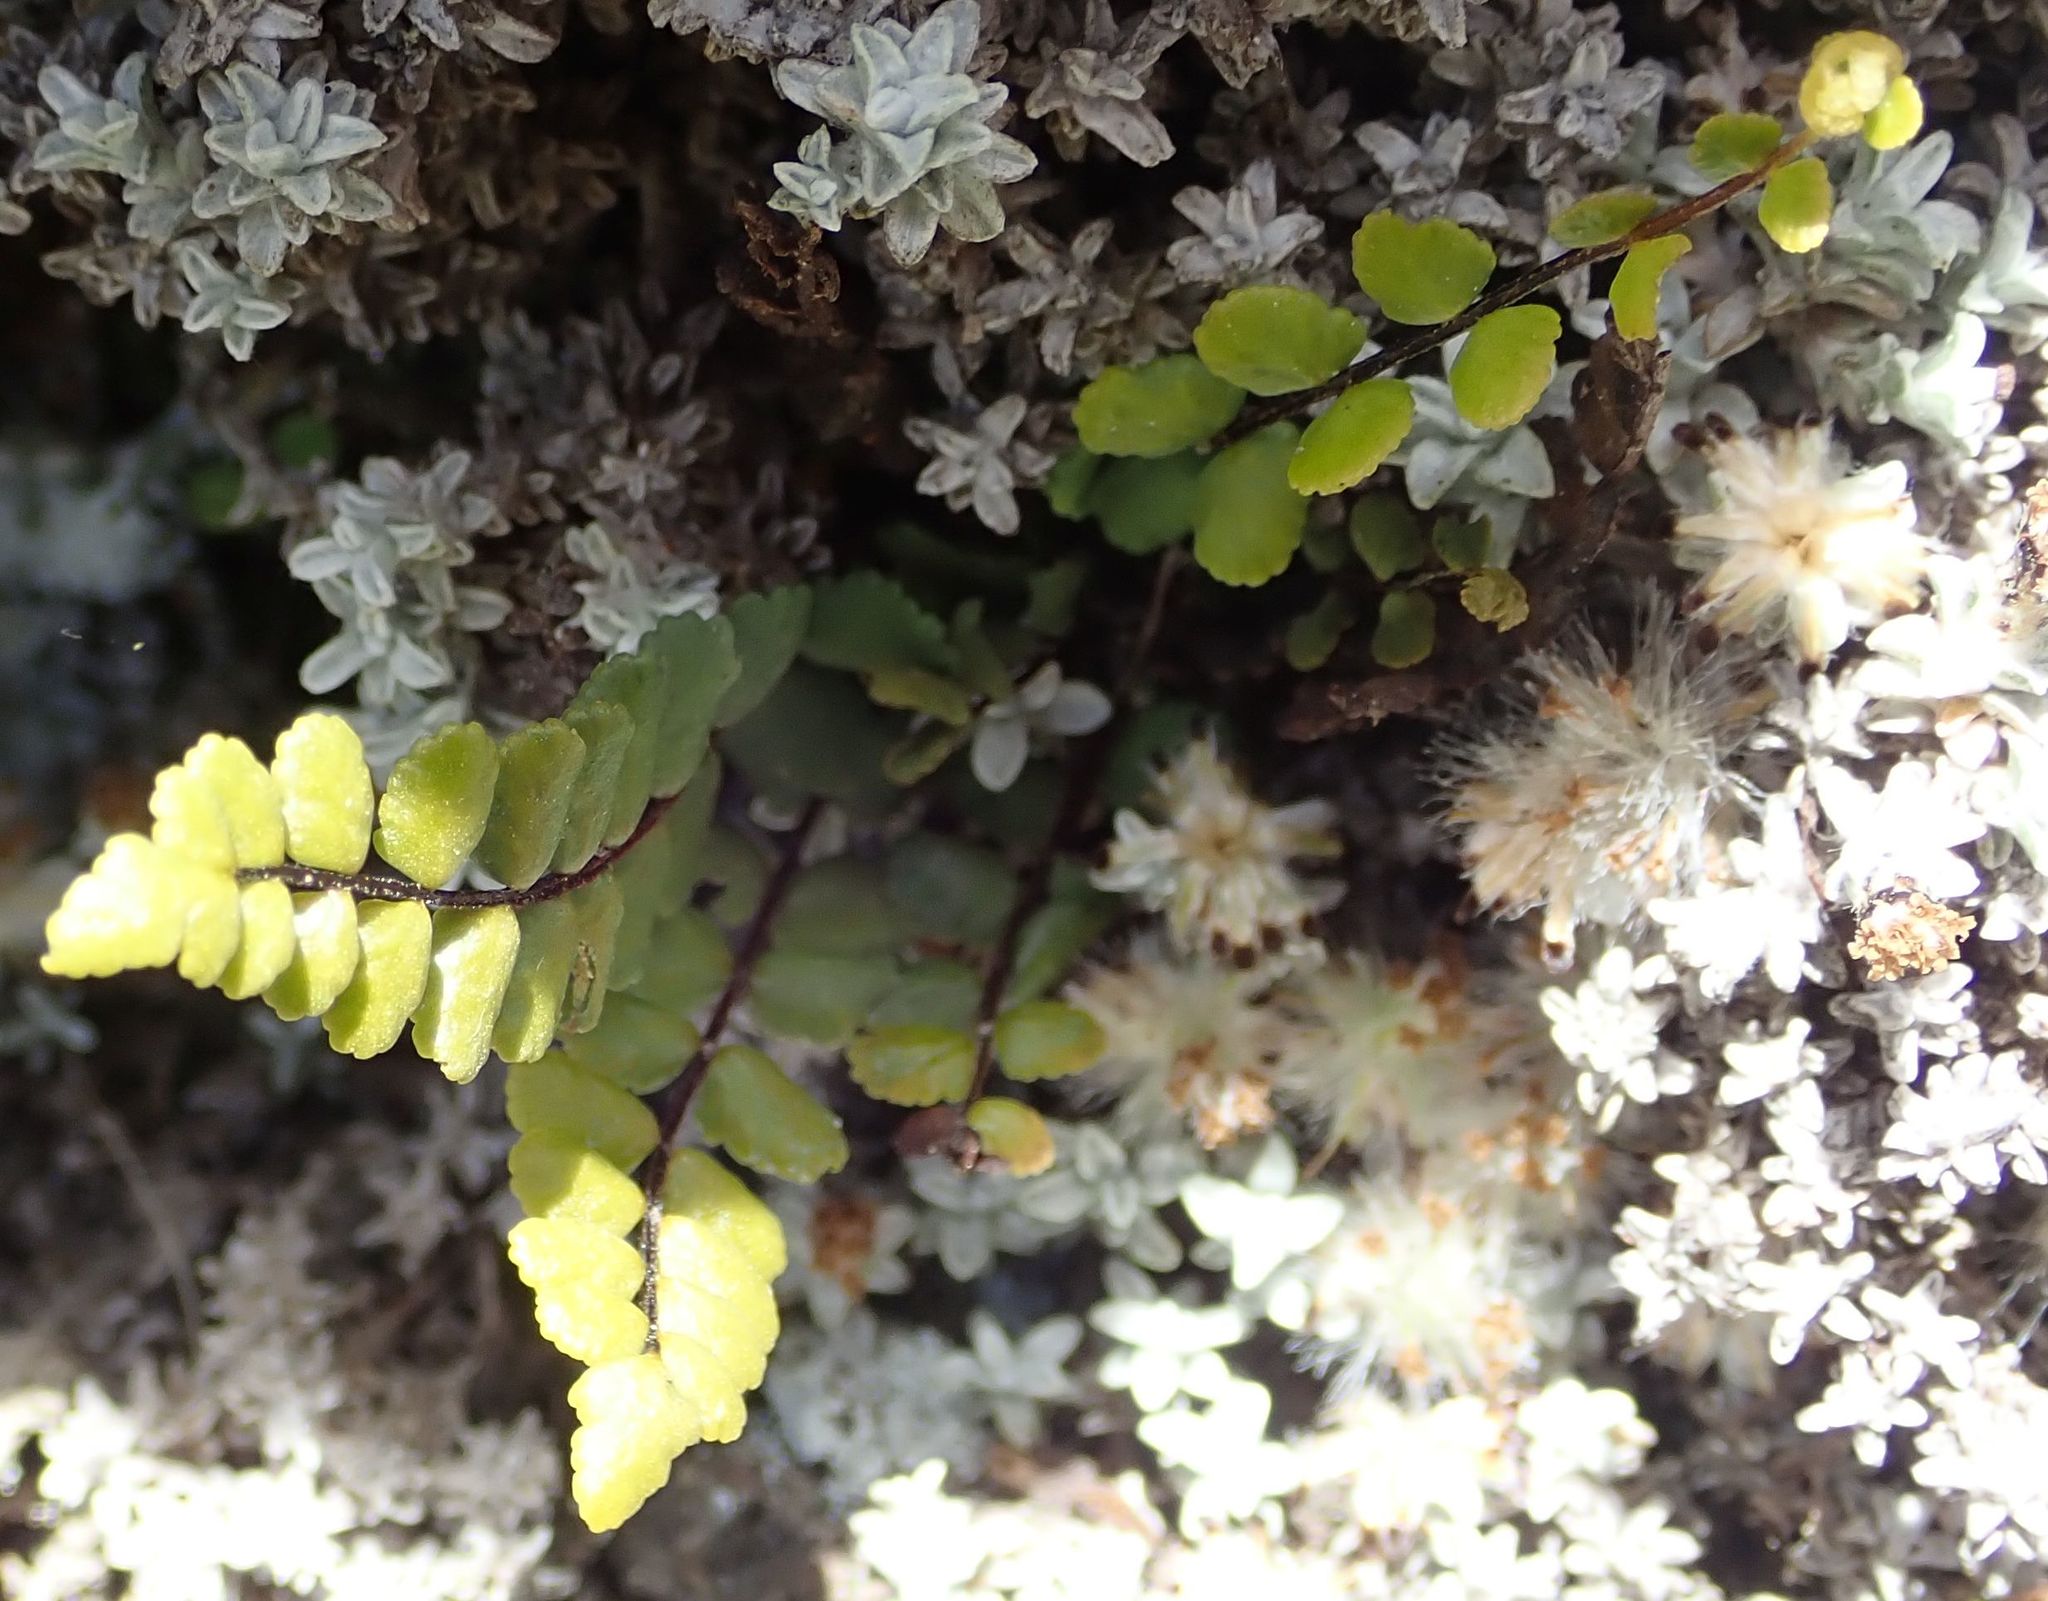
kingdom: Plantae
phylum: Tracheophyta
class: Polypodiopsida
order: Polypodiales
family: Aspleniaceae
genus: Asplenium
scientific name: Asplenium trichomanes
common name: Maidenhair spleenwort
